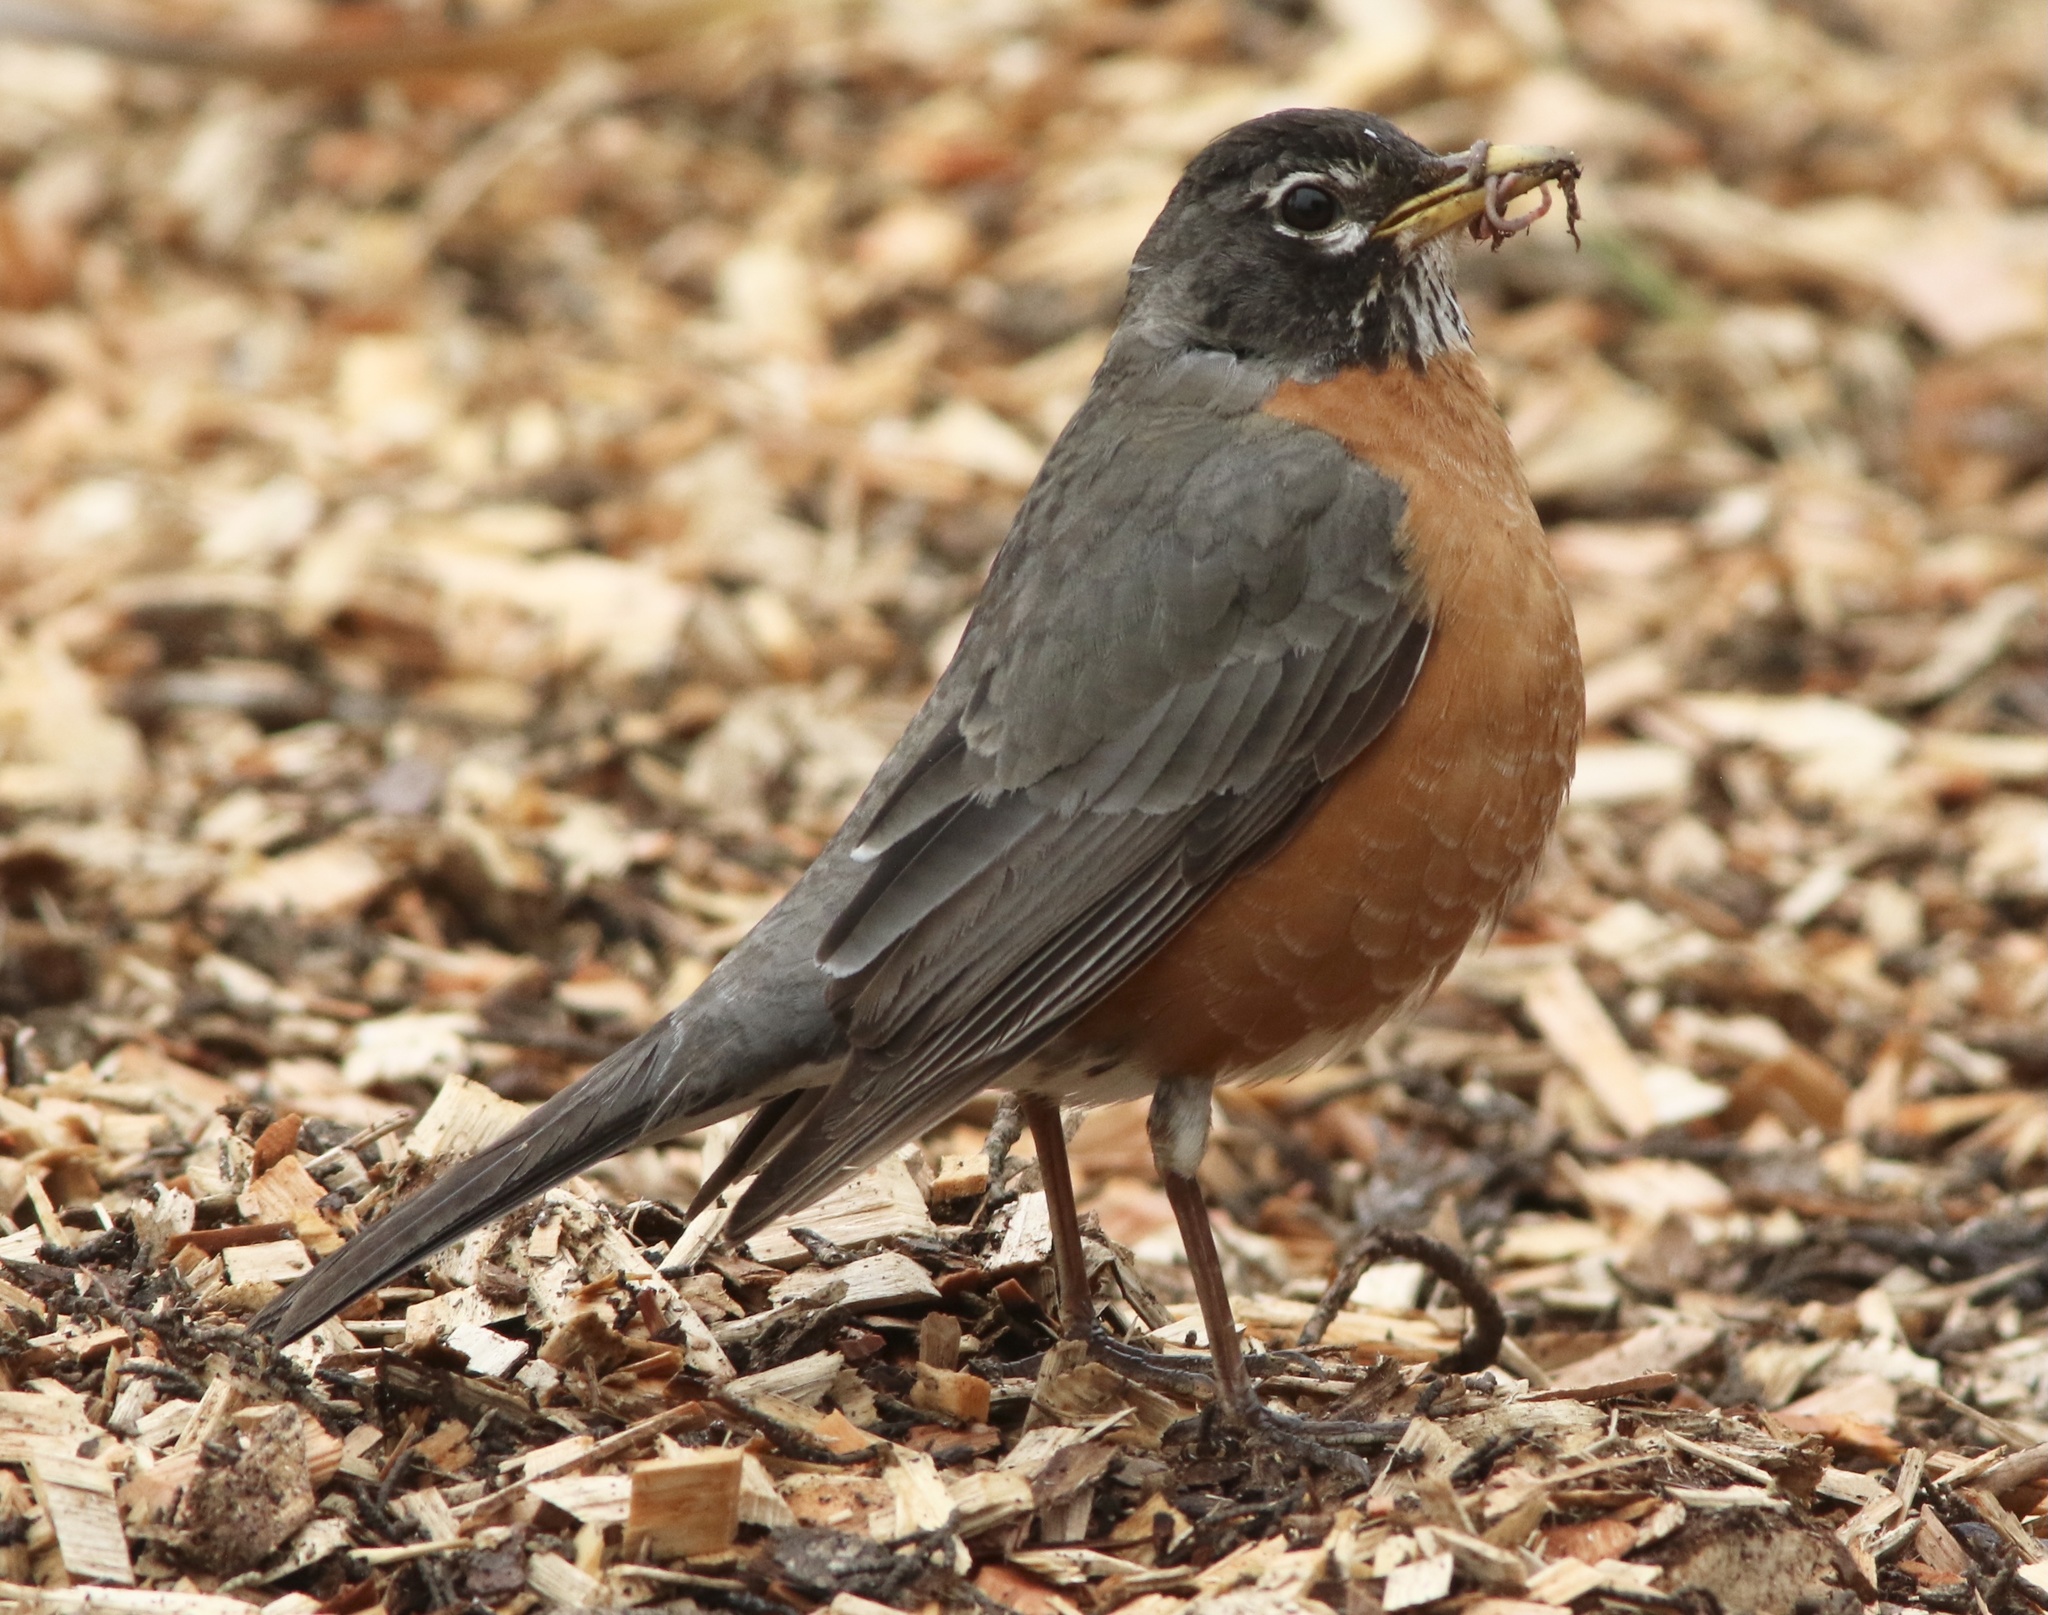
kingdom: Animalia
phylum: Chordata
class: Aves
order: Passeriformes
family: Turdidae
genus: Turdus
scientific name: Turdus migratorius
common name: American robin
